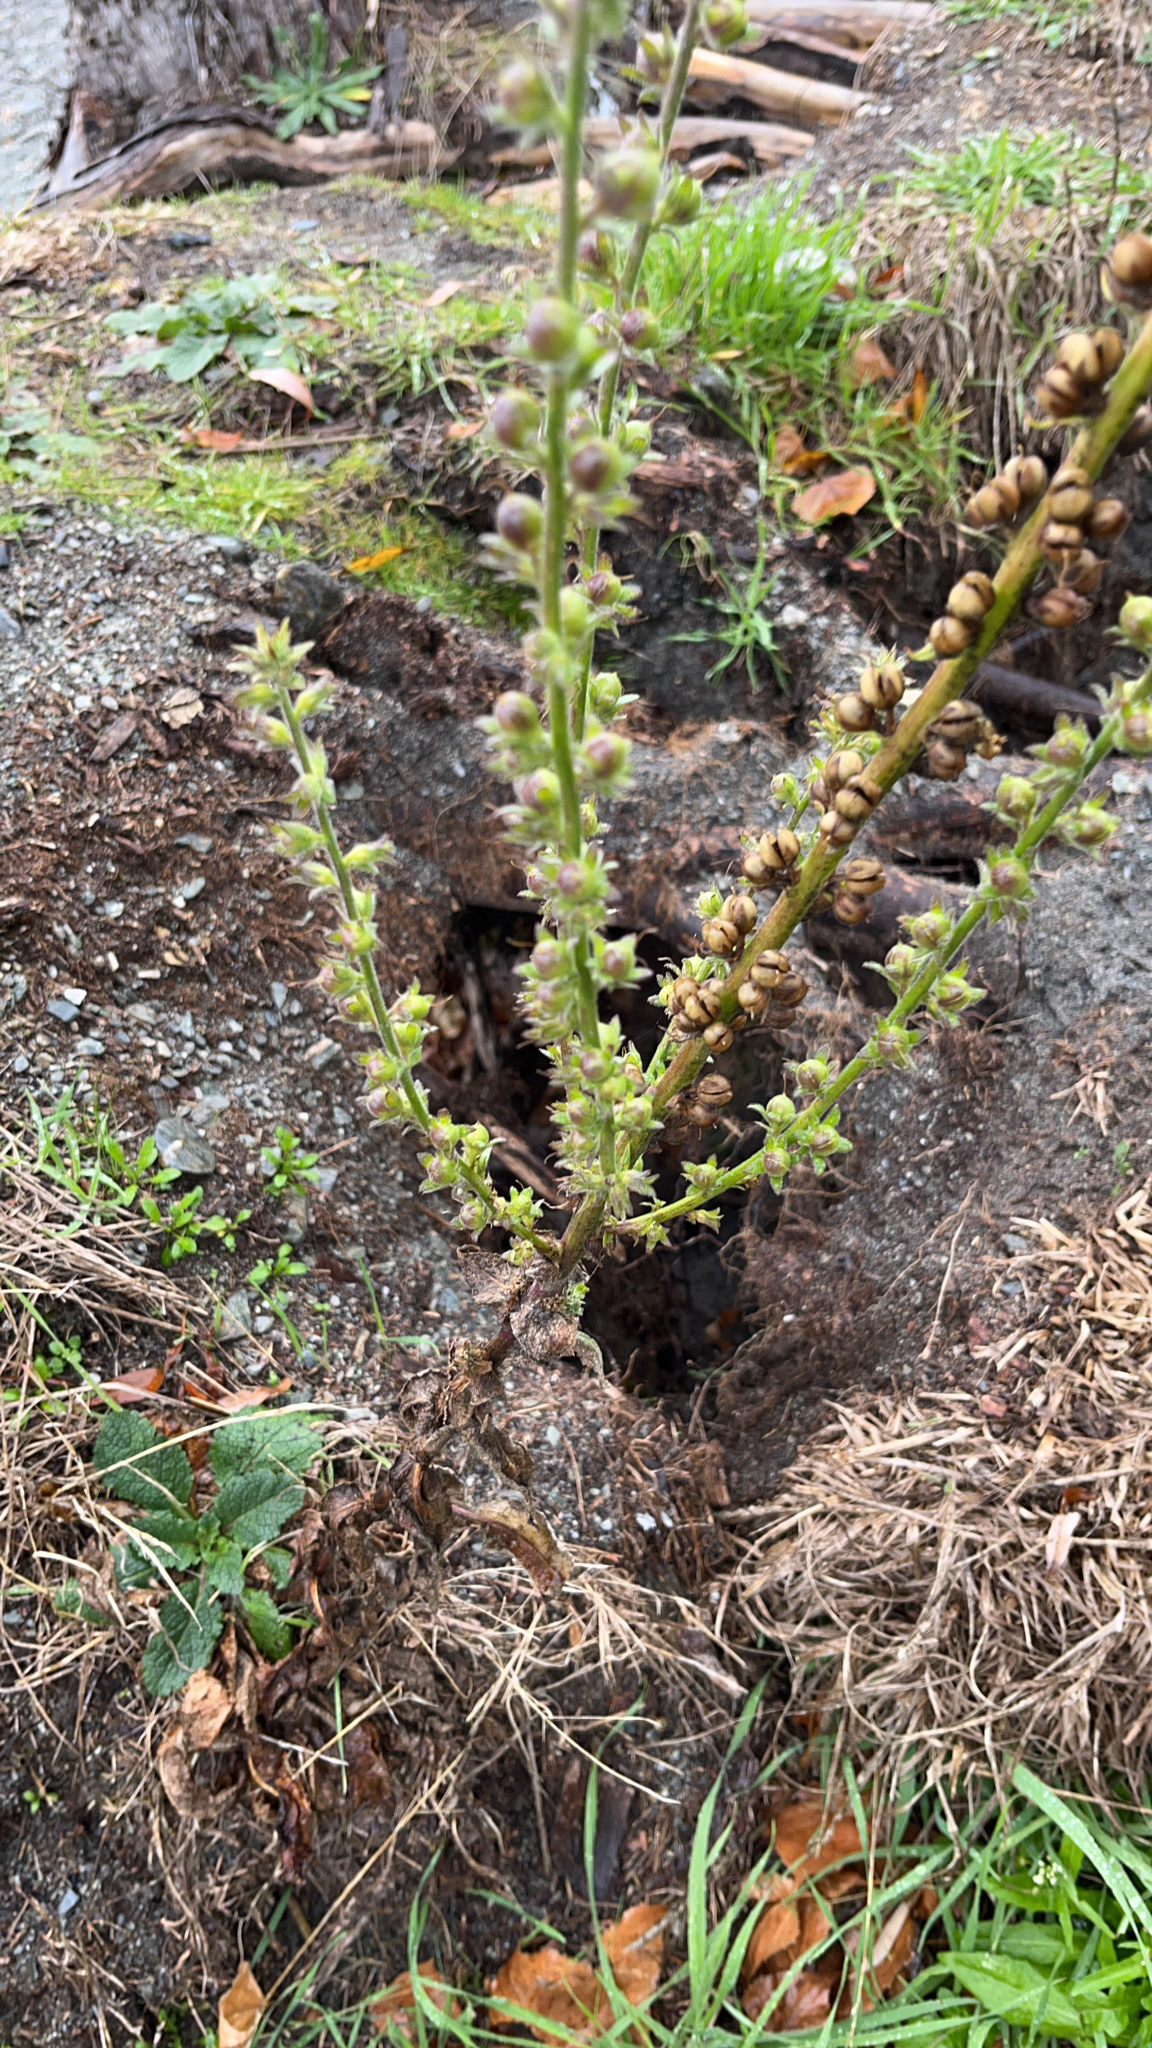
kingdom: Plantae
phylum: Tracheophyta
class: Magnoliopsida
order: Lamiales
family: Scrophulariaceae
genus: Verbascum
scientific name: Verbascum virgatum
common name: Twiggy mullein
